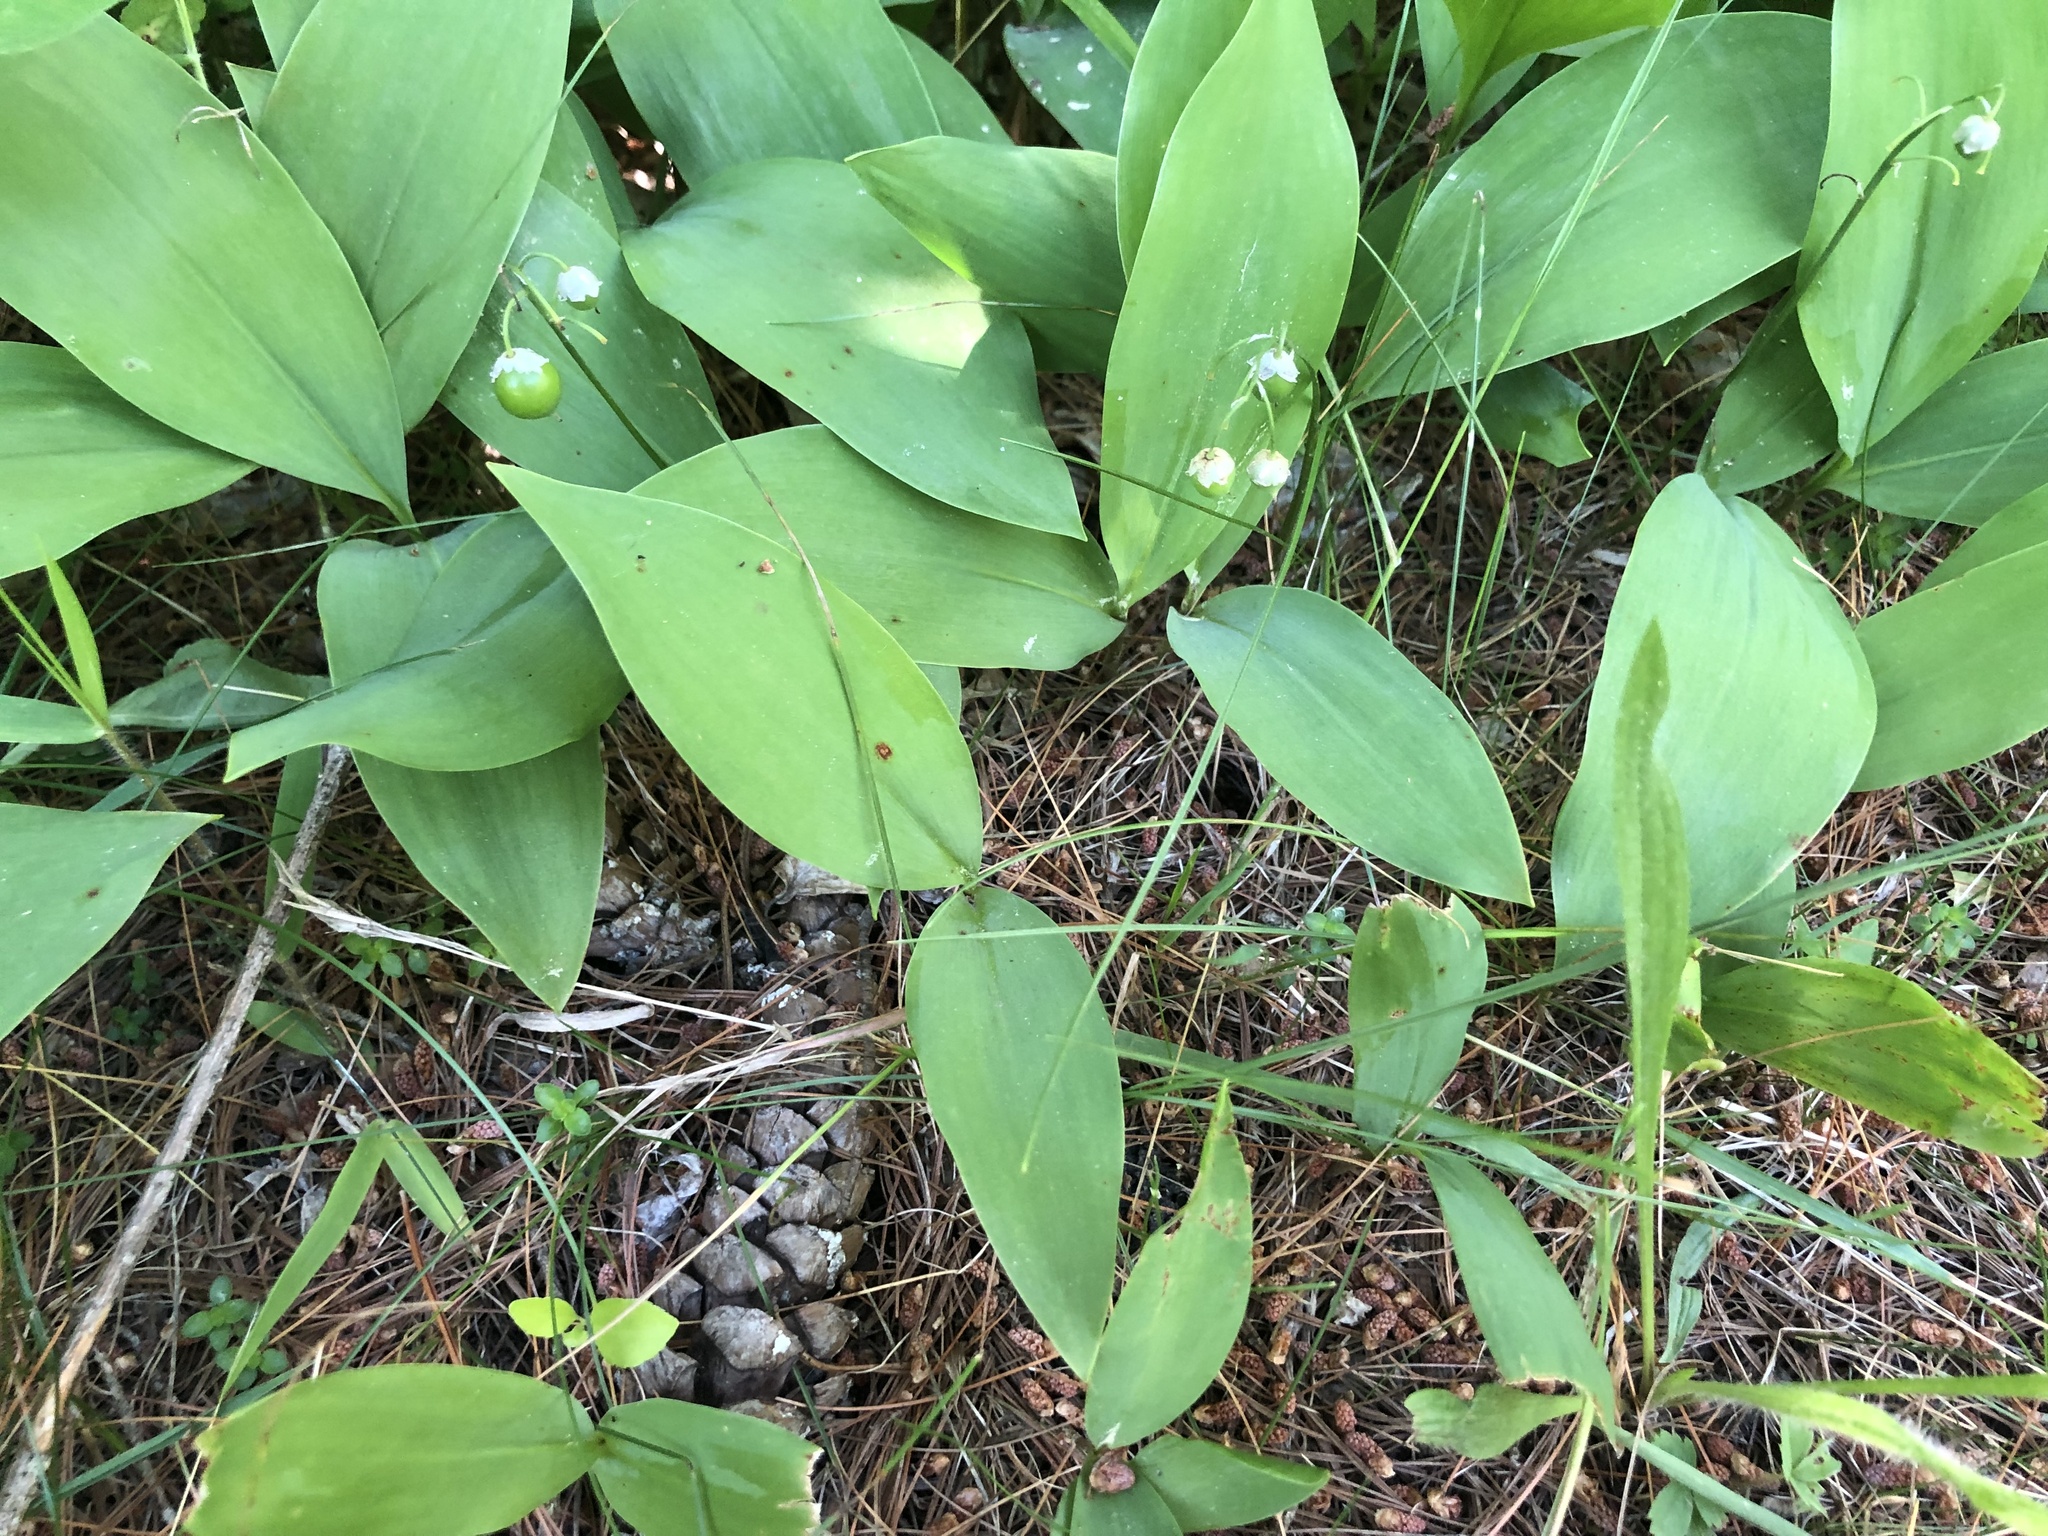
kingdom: Plantae
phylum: Tracheophyta
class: Liliopsida
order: Asparagales
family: Asparagaceae
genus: Convallaria
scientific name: Convallaria majalis
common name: Lily-of-the-valley
